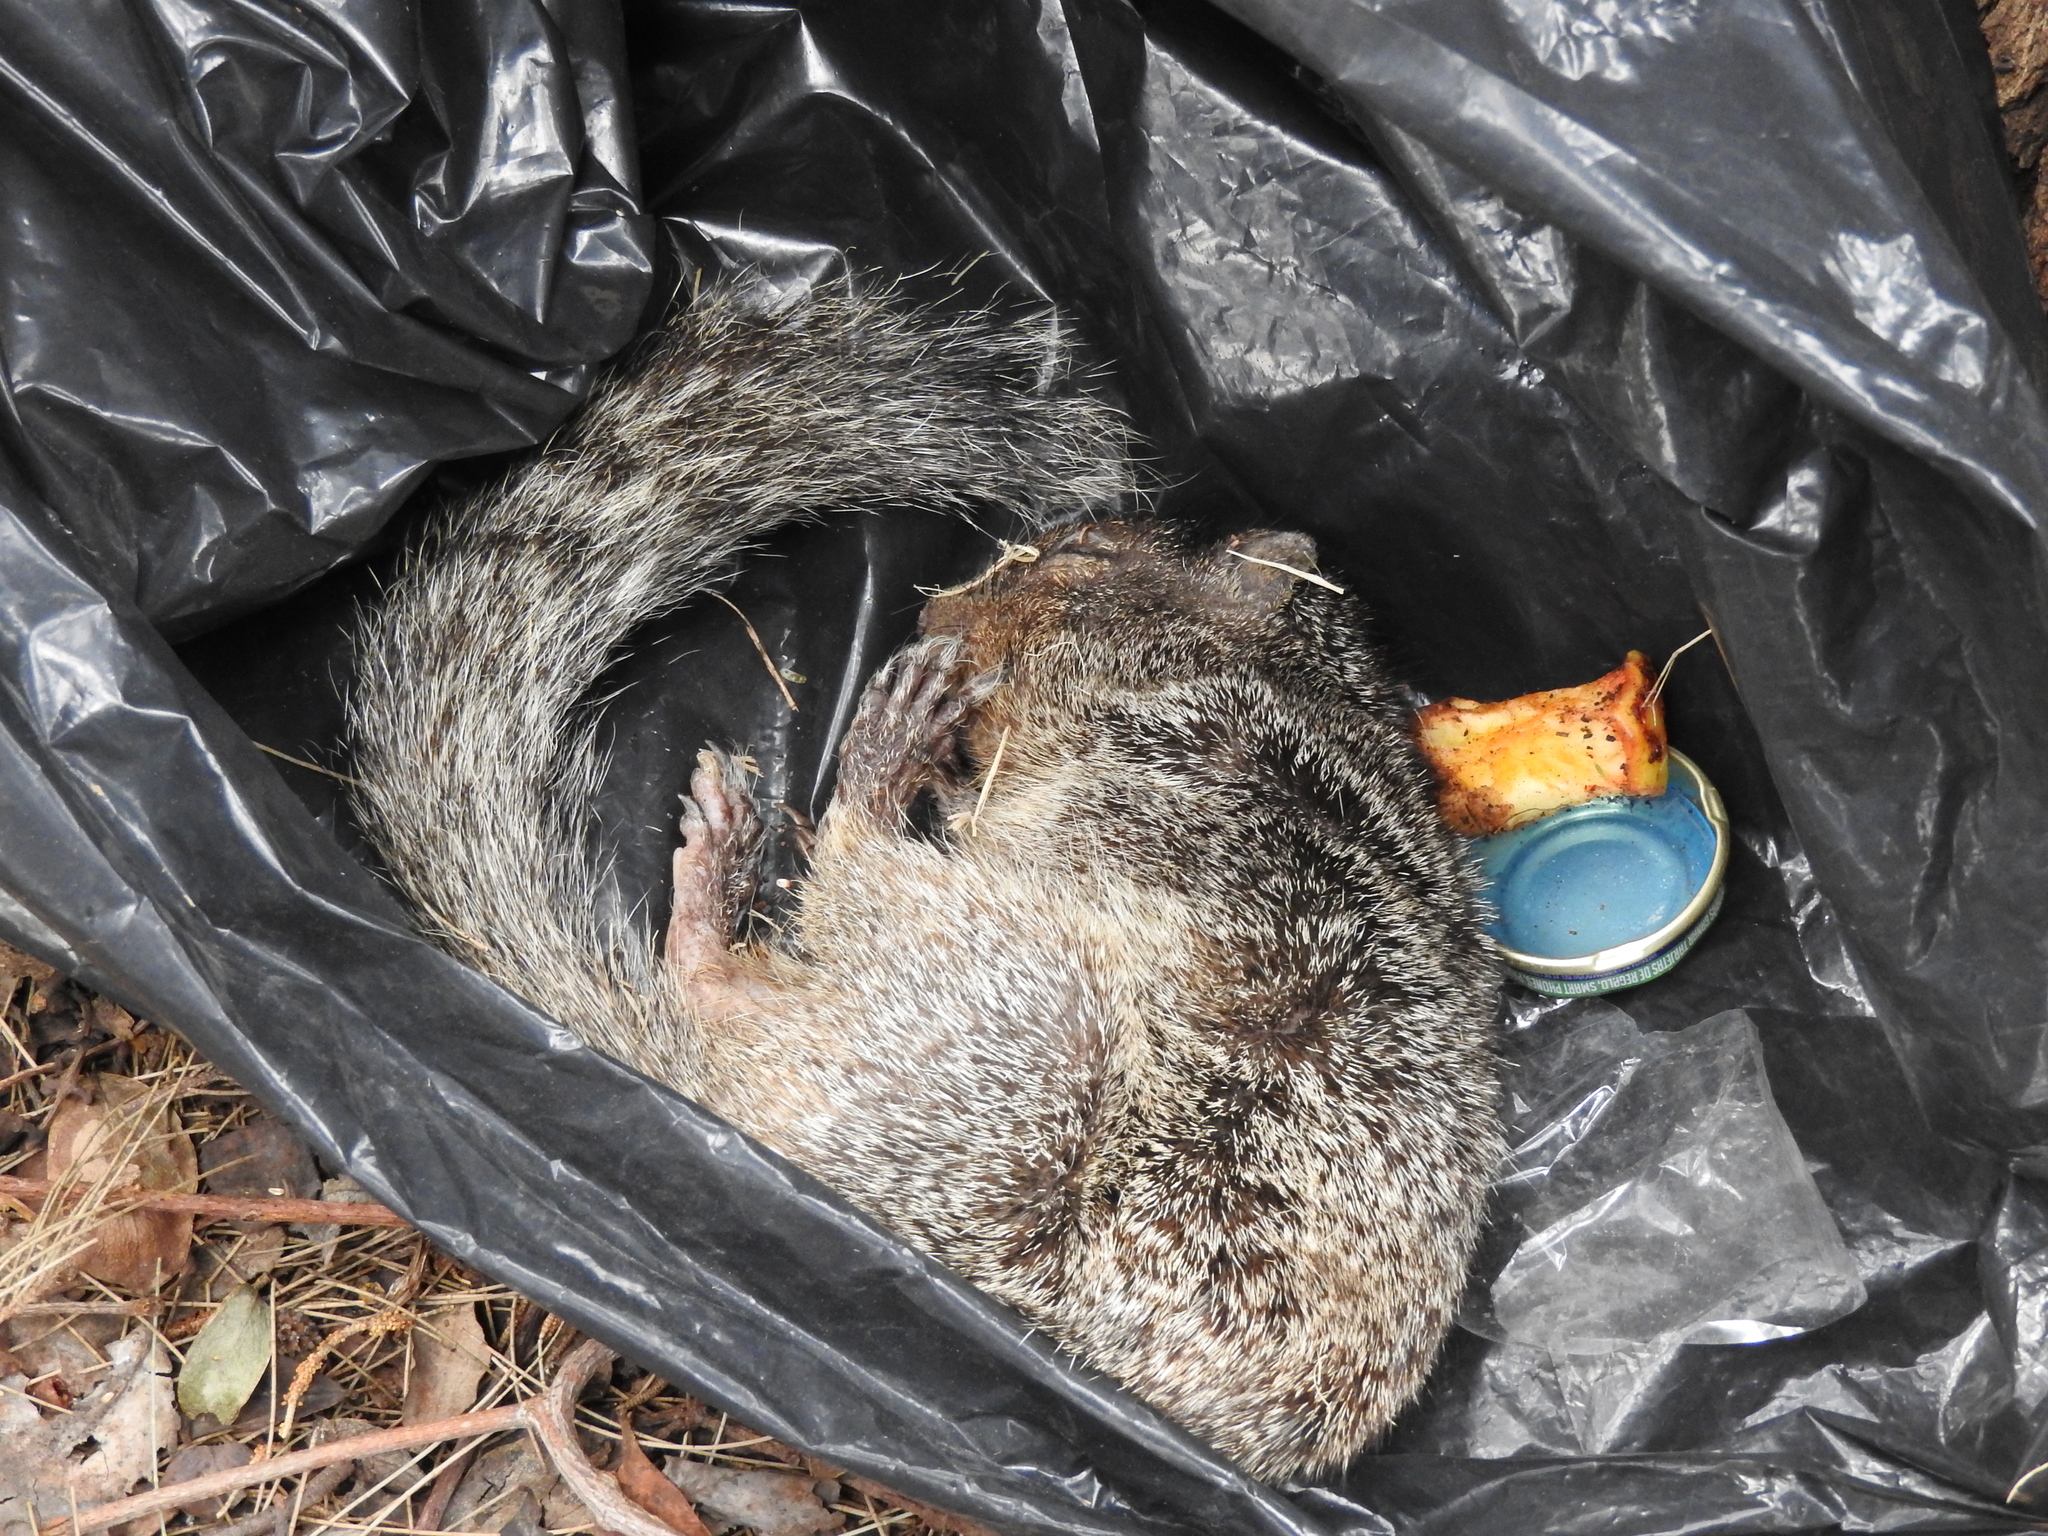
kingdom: Animalia
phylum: Chordata
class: Mammalia
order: Rodentia
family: Sciuridae
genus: Otospermophilus
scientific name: Otospermophilus variegatus
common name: Rock squirrel
